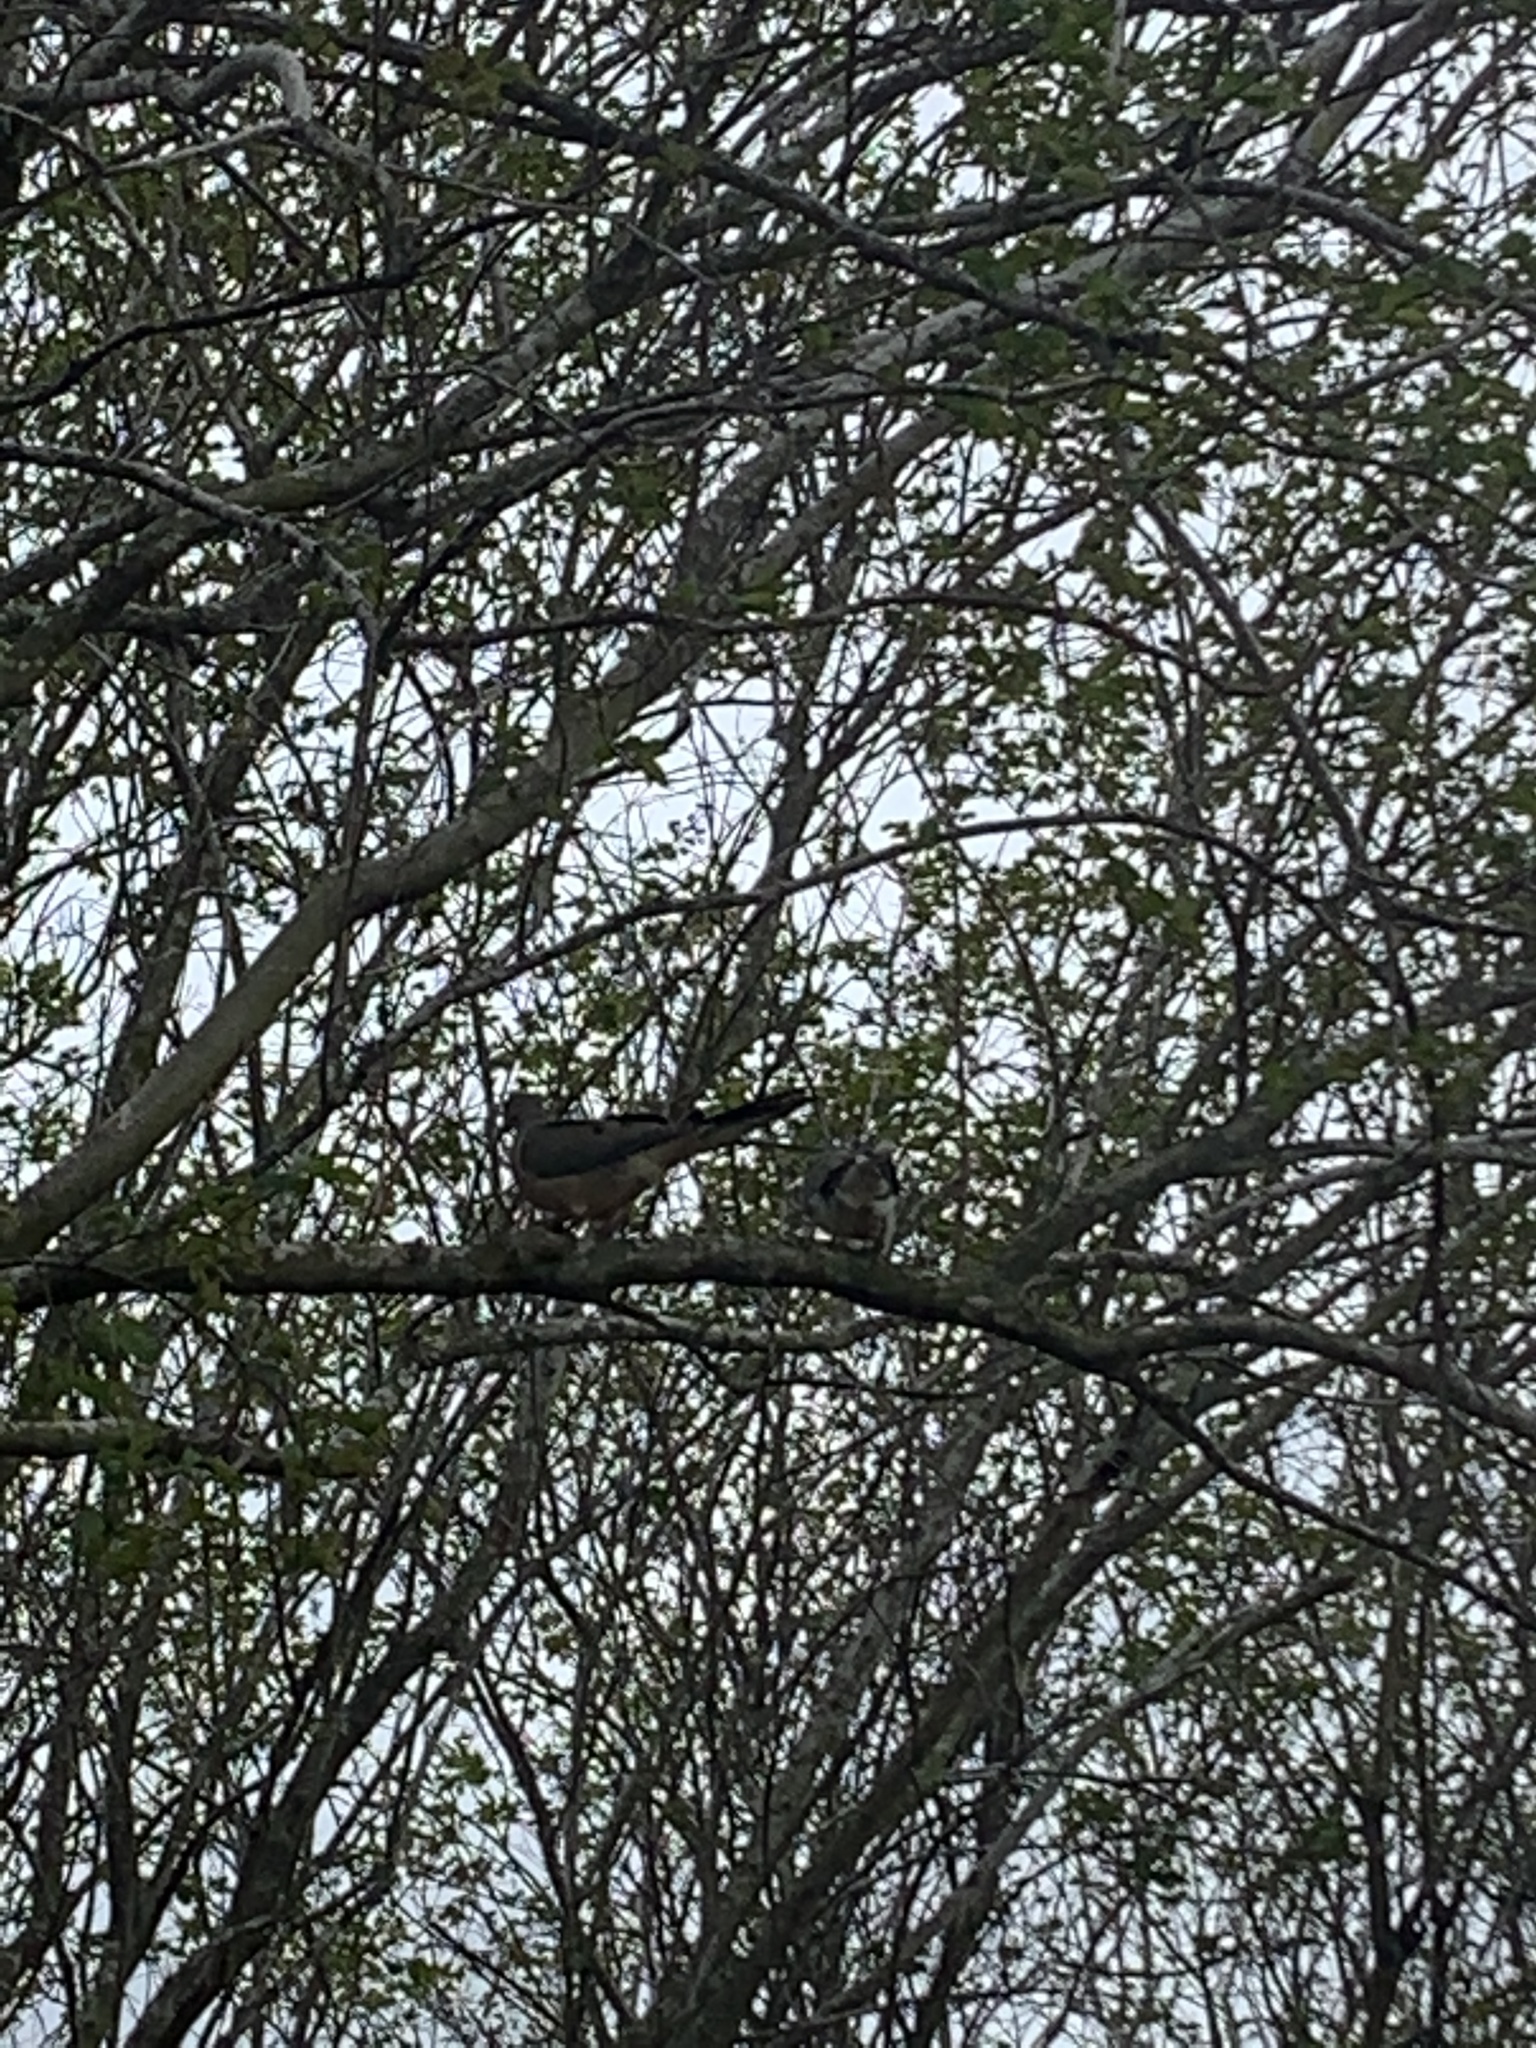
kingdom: Animalia
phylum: Chordata
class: Aves
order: Columbiformes
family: Columbidae
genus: Zenaida
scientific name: Zenaida macroura
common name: Mourning dove
